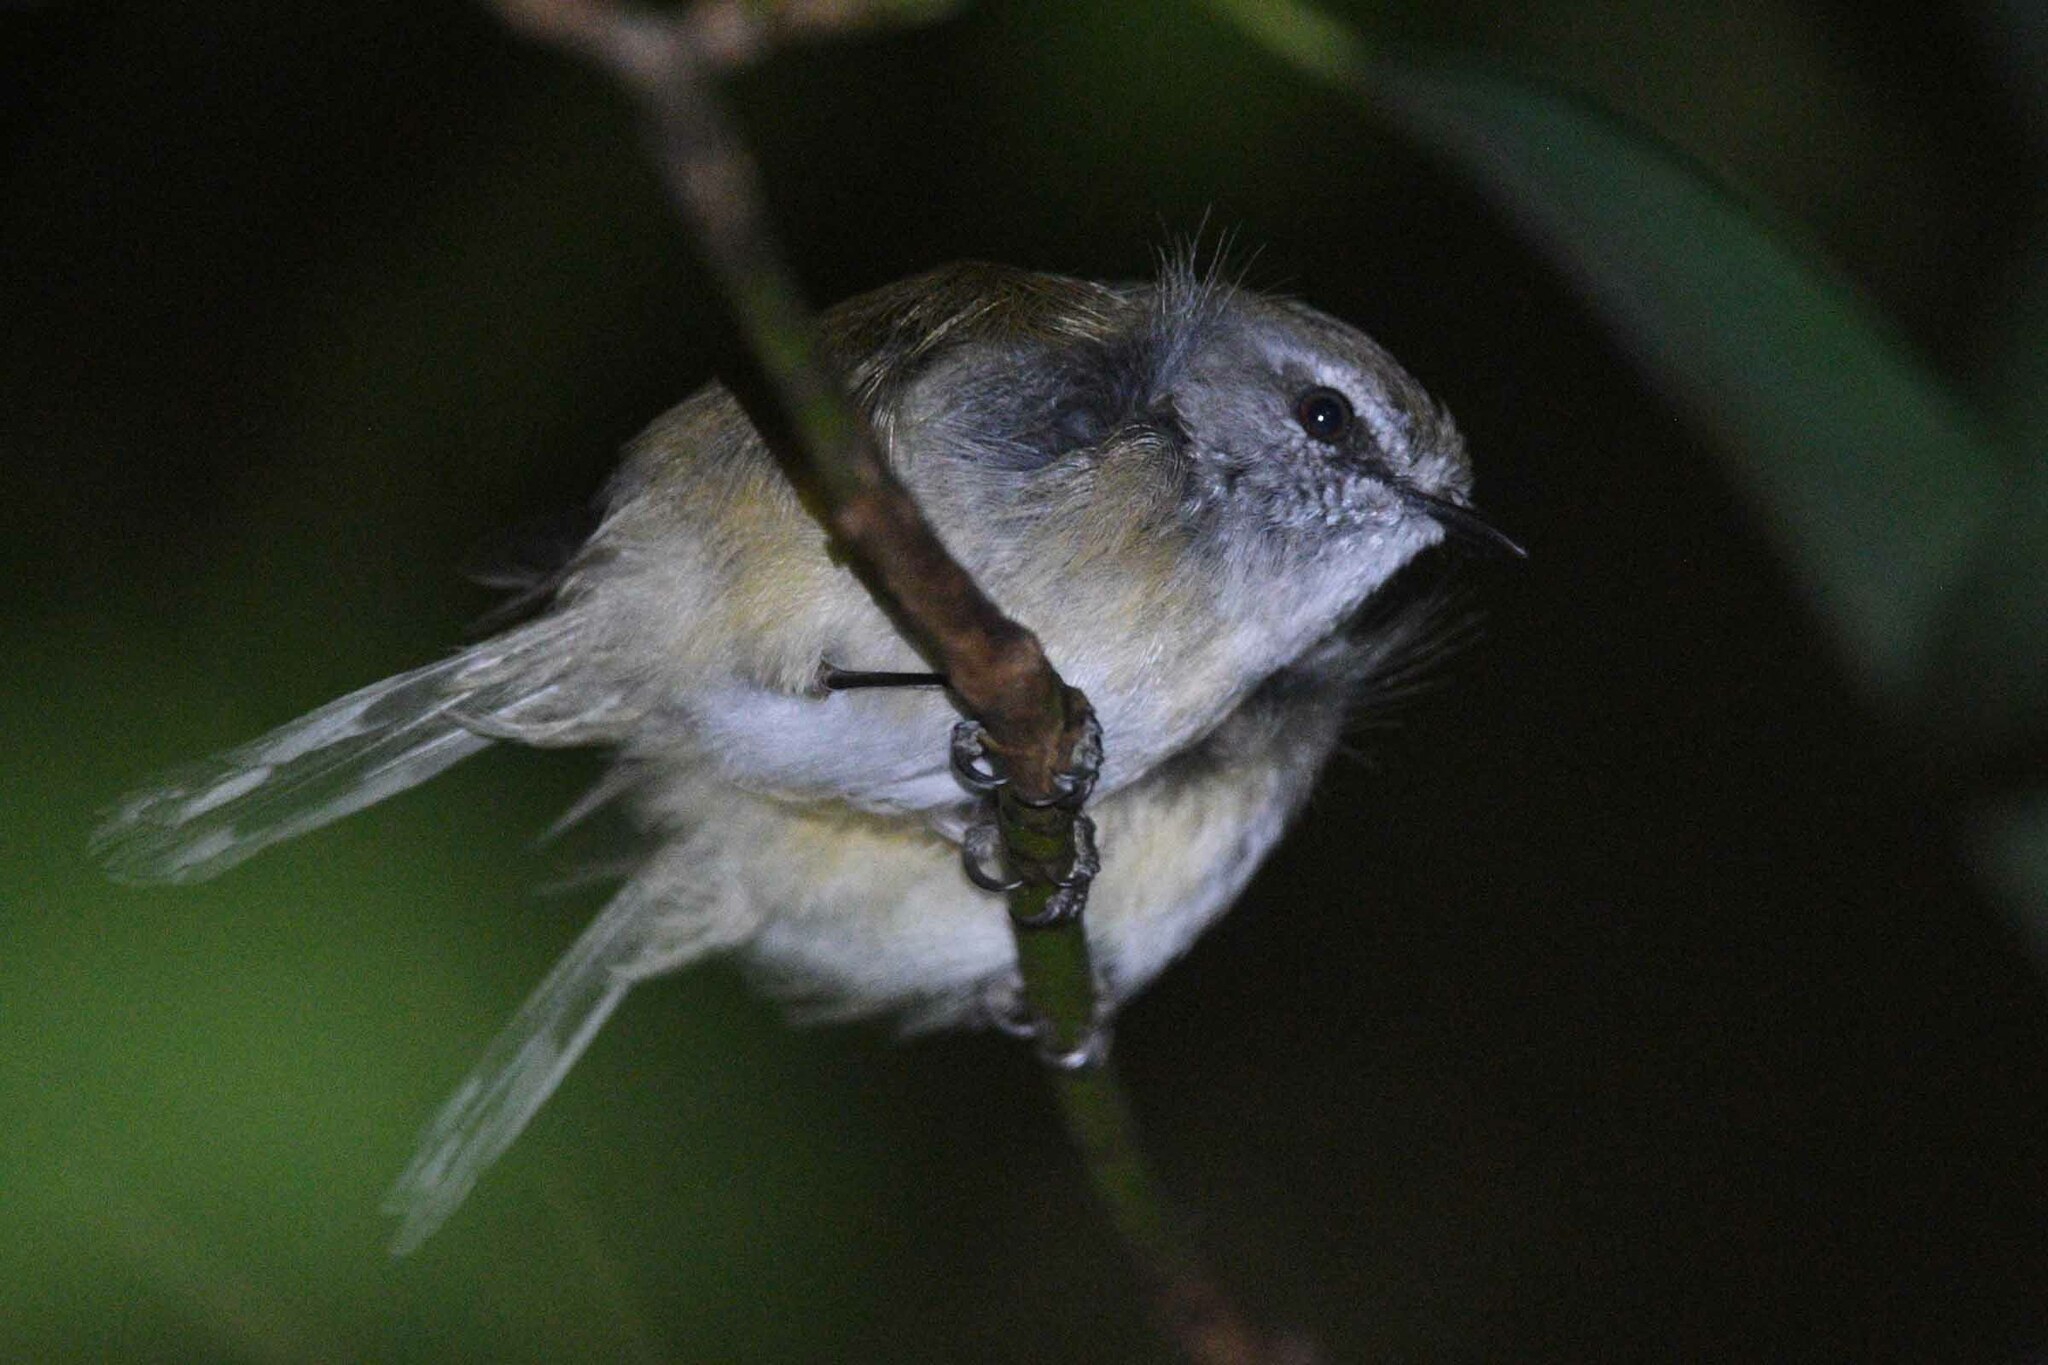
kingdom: Animalia
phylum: Chordata
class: Aves
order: Passeriformes
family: Acanthizidae
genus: Gerygone
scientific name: Gerygone mouki
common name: Brown gerygone
